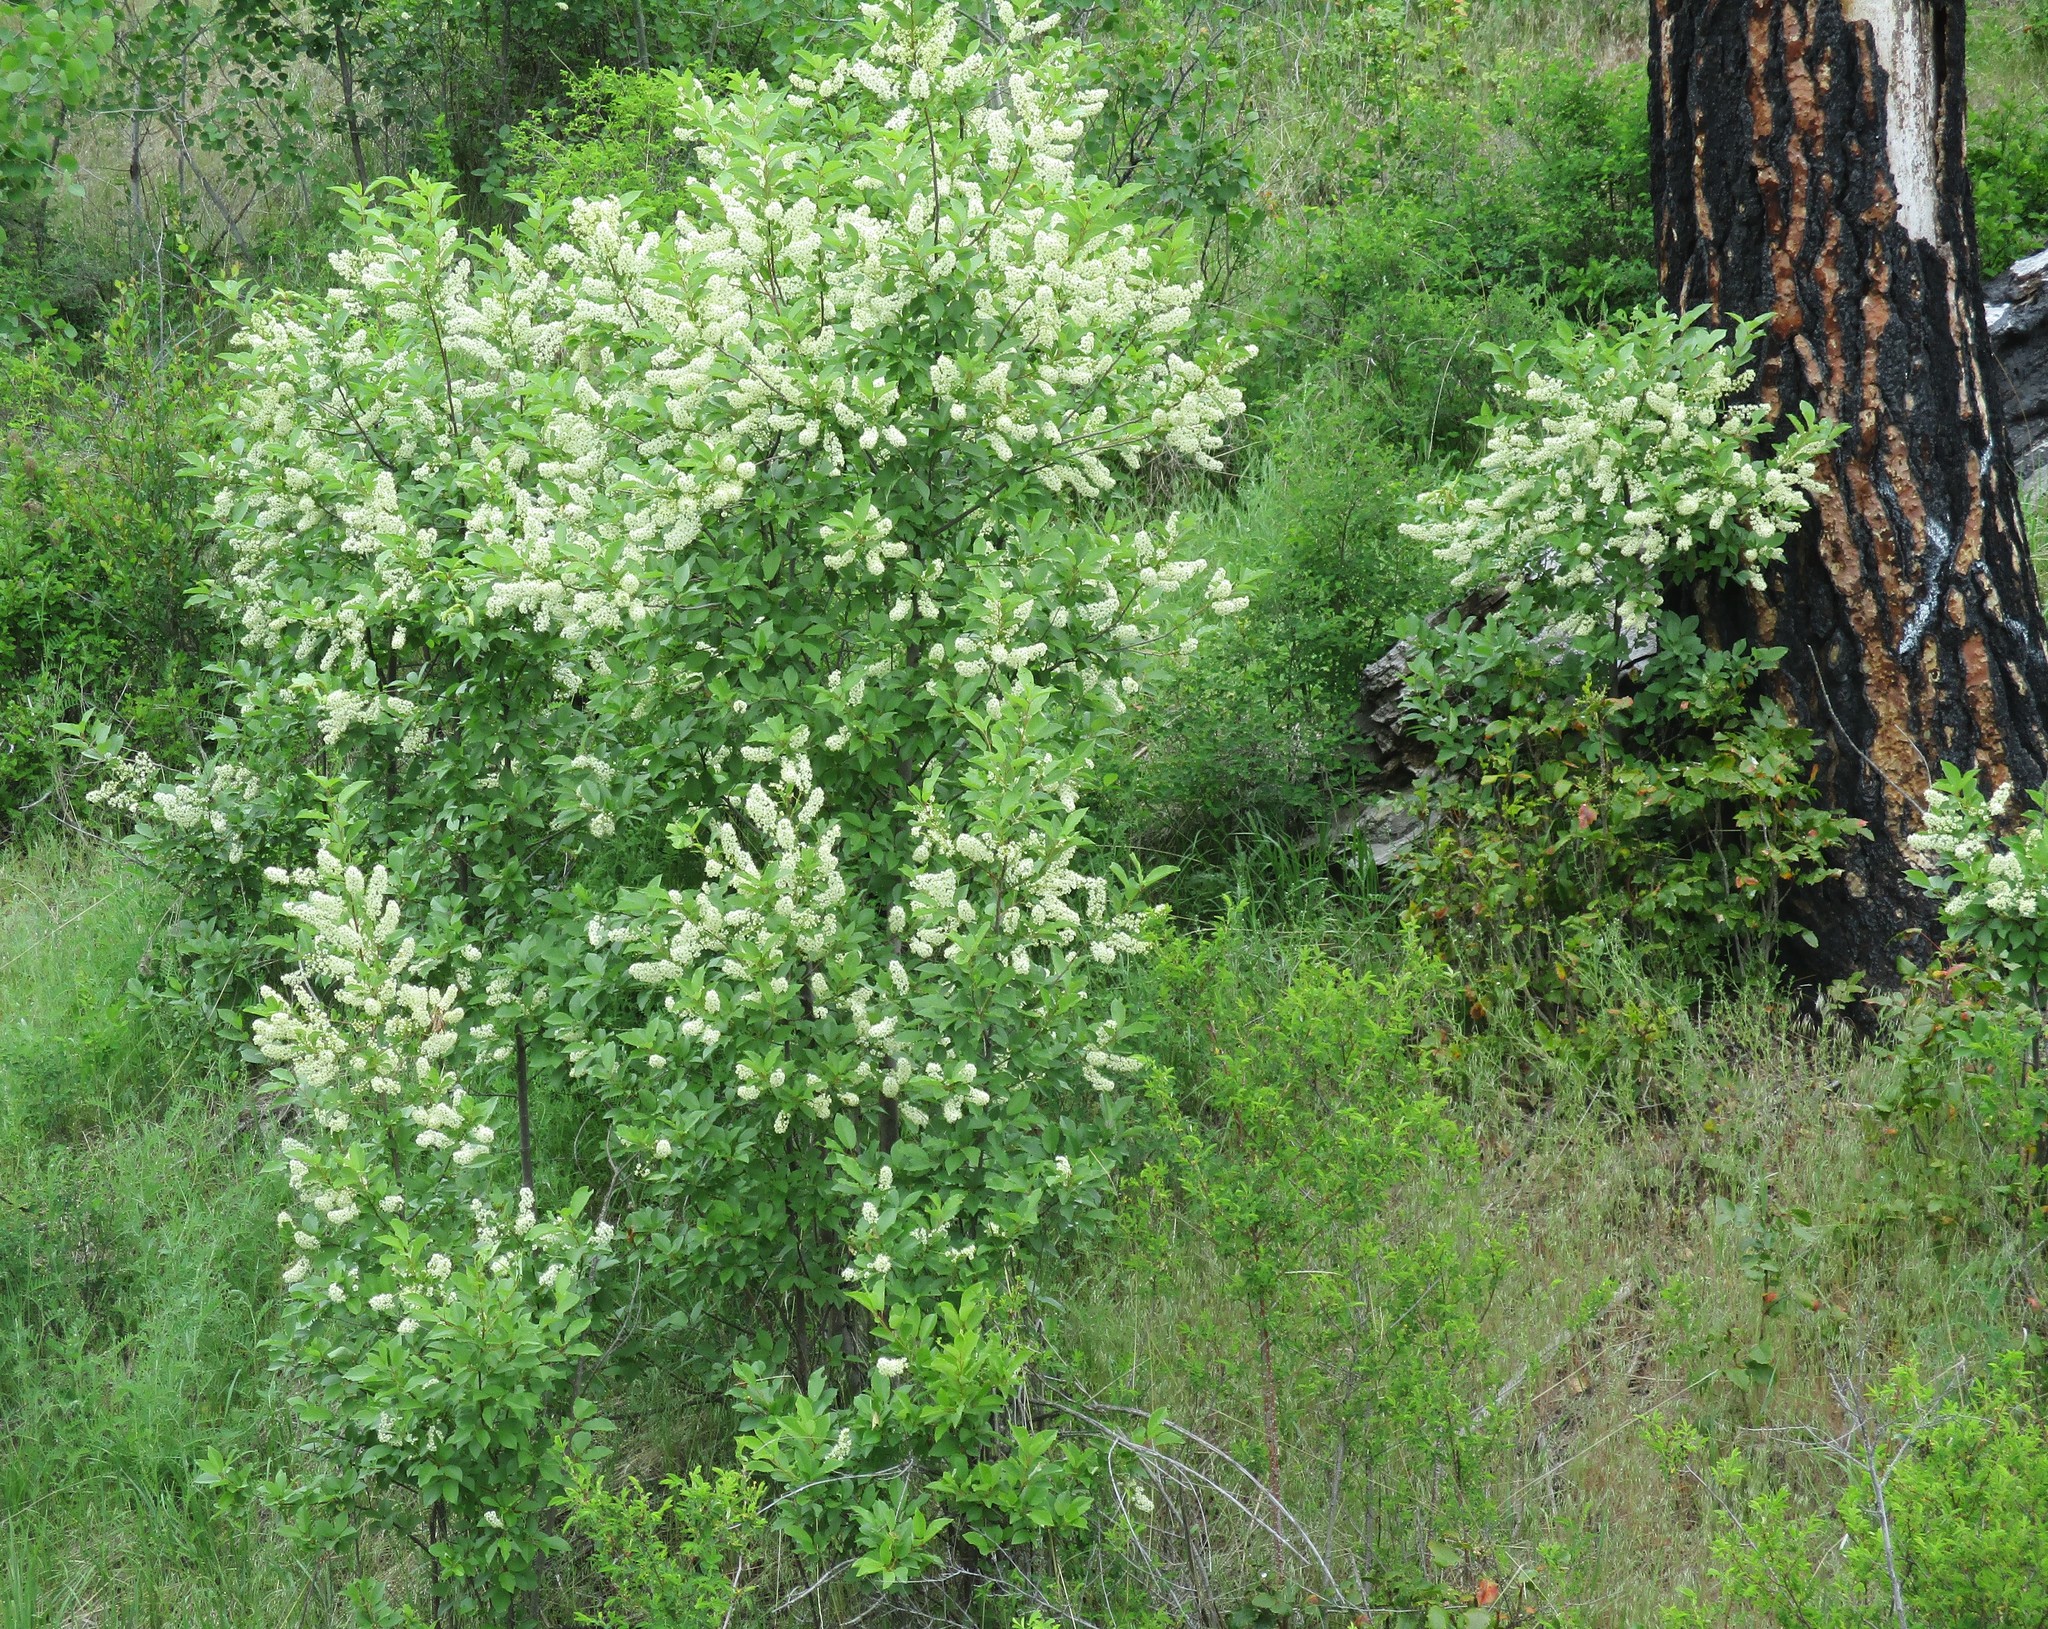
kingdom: Plantae
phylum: Tracheophyta
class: Magnoliopsida
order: Rosales
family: Rosaceae
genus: Prunus
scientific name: Prunus virginiana
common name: Chokecherry
